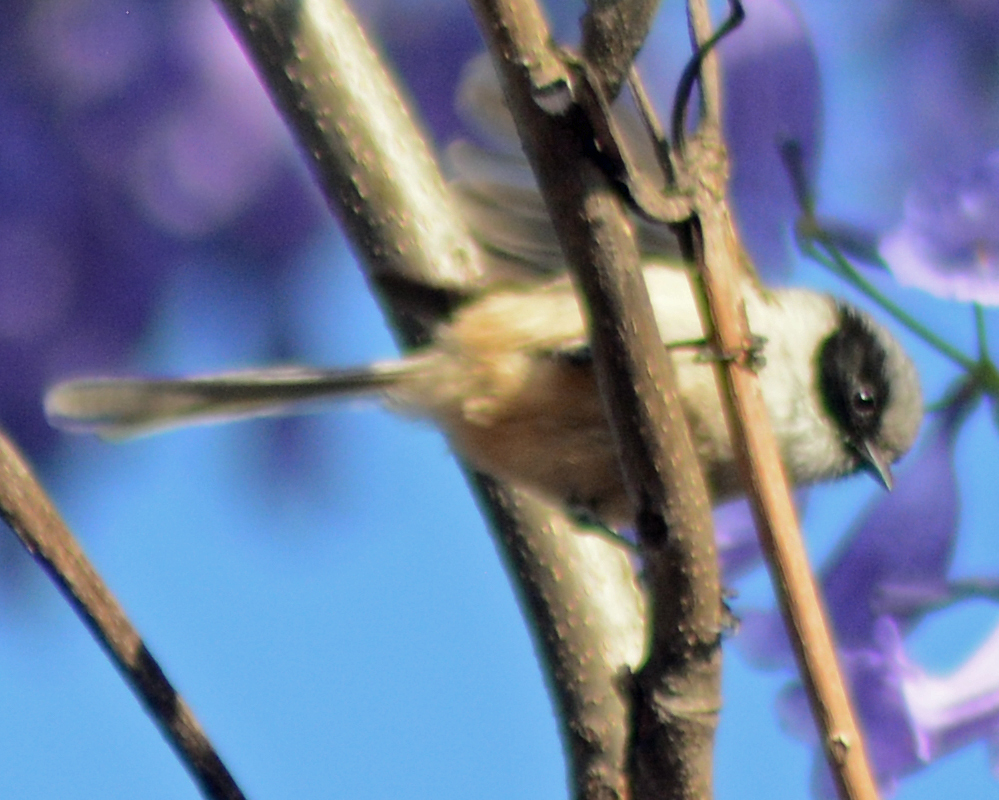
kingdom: Animalia
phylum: Chordata
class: Aves
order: Passeriformes
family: Aegithalidae
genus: Psaltriparus
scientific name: Psaltriparus minimus
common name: American bushtit
